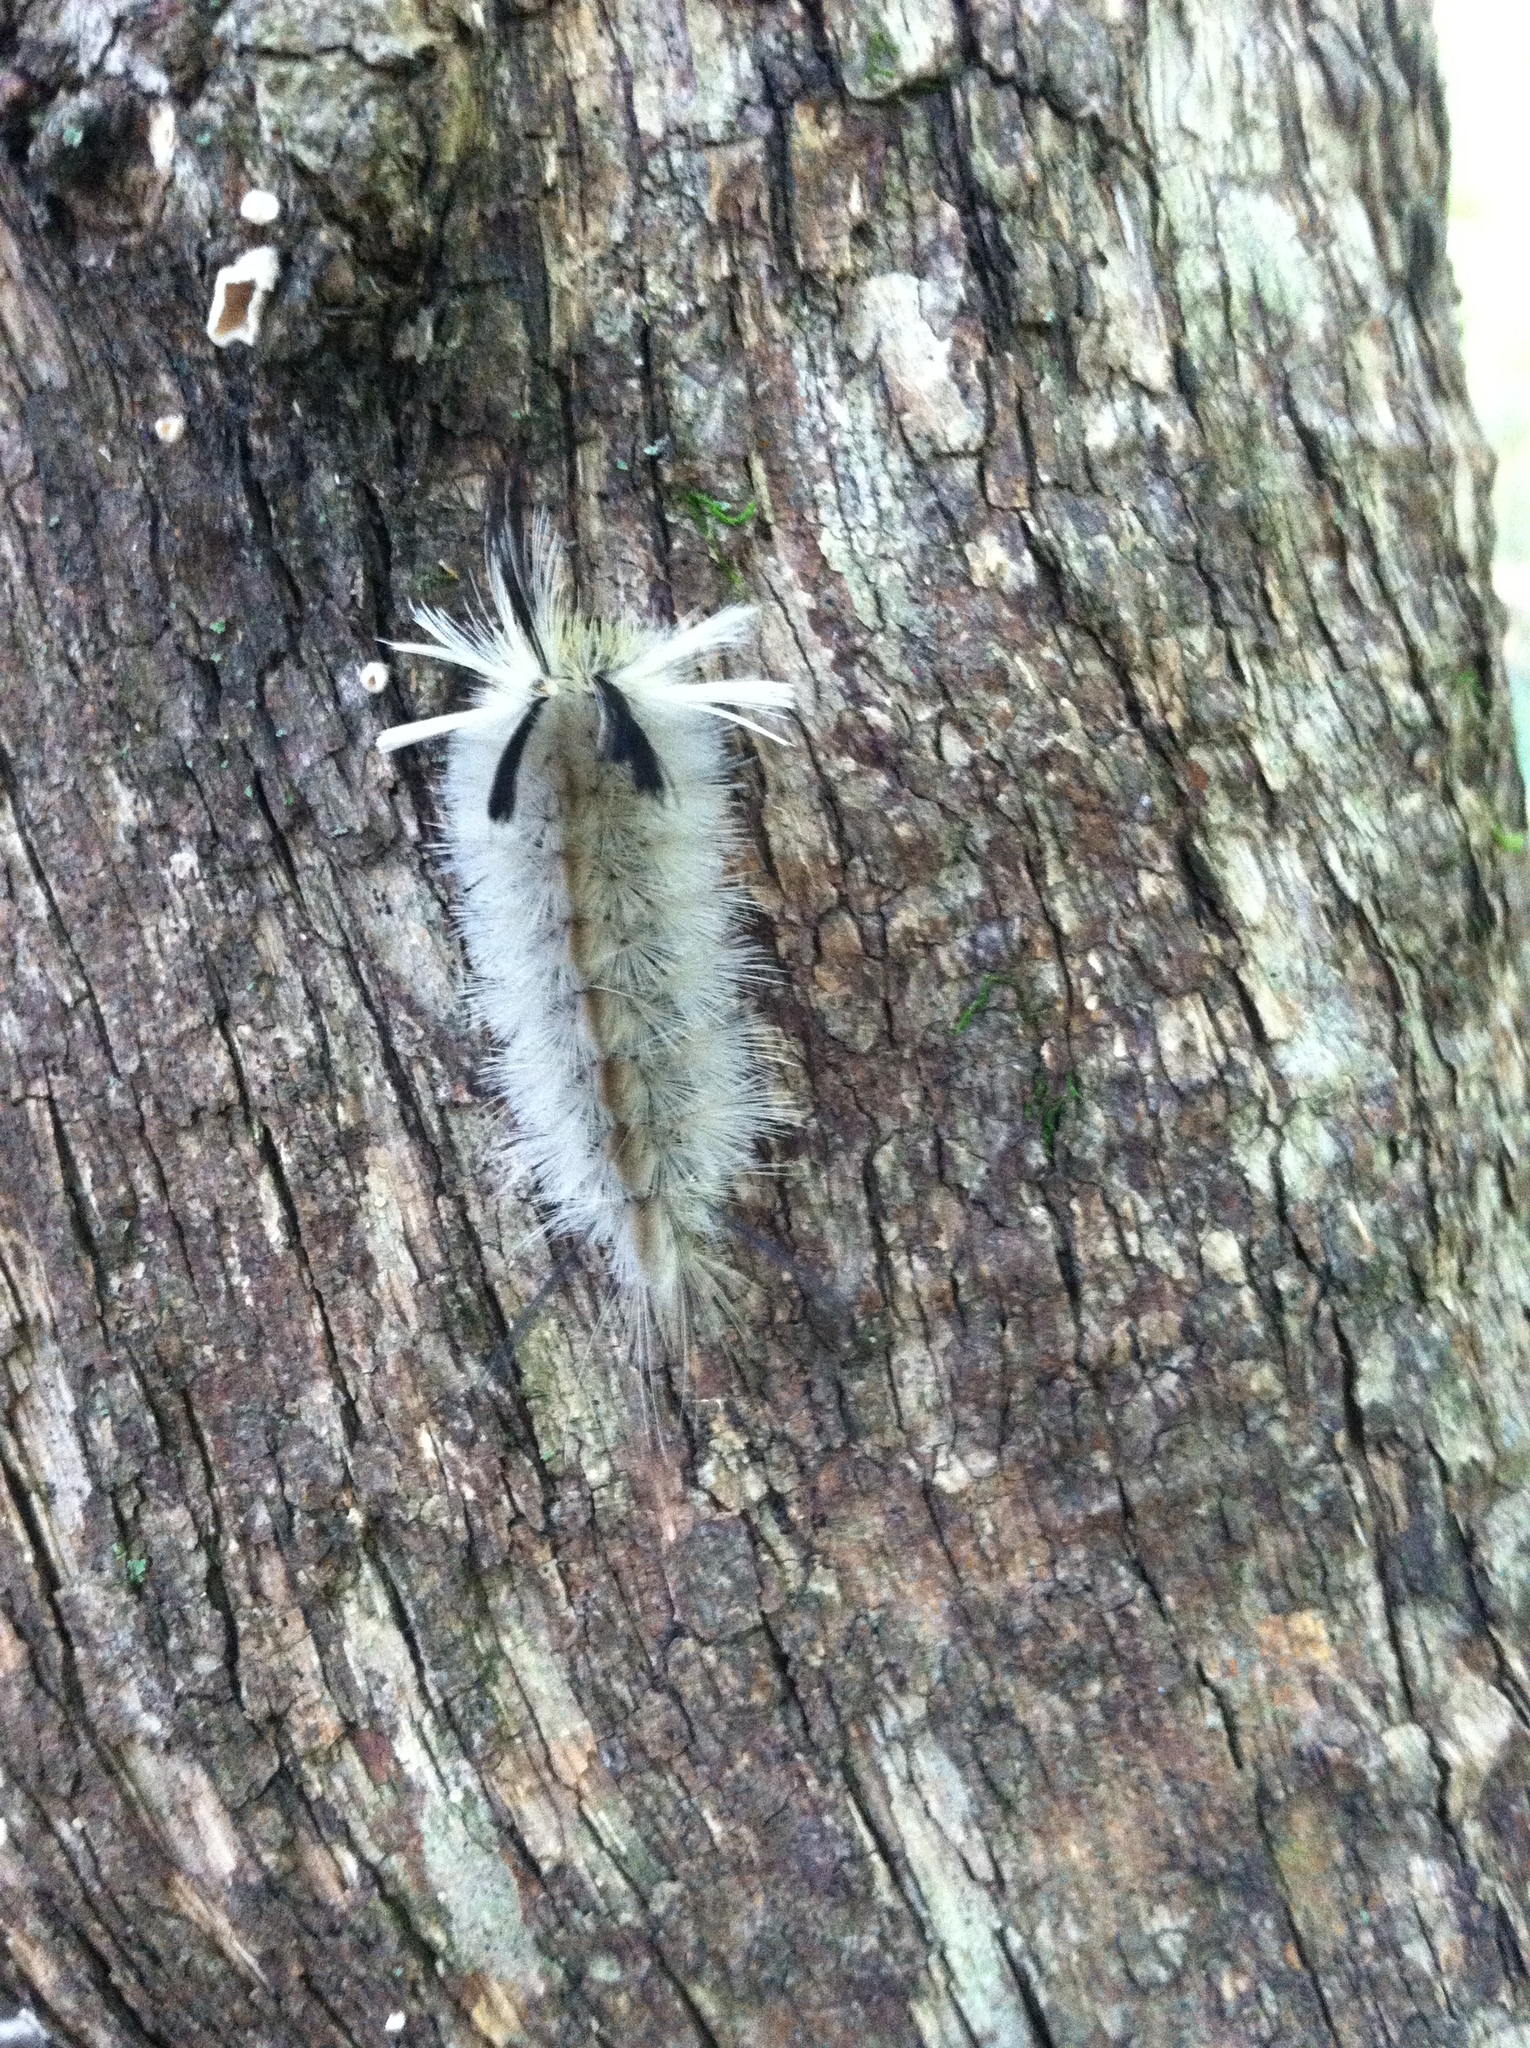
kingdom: Animalia
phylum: Arthropoda
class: Insecta
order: Lepidoptera
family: Erebidae
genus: Halysidota
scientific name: Halysidota tessellaris
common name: Banded tussock moth
